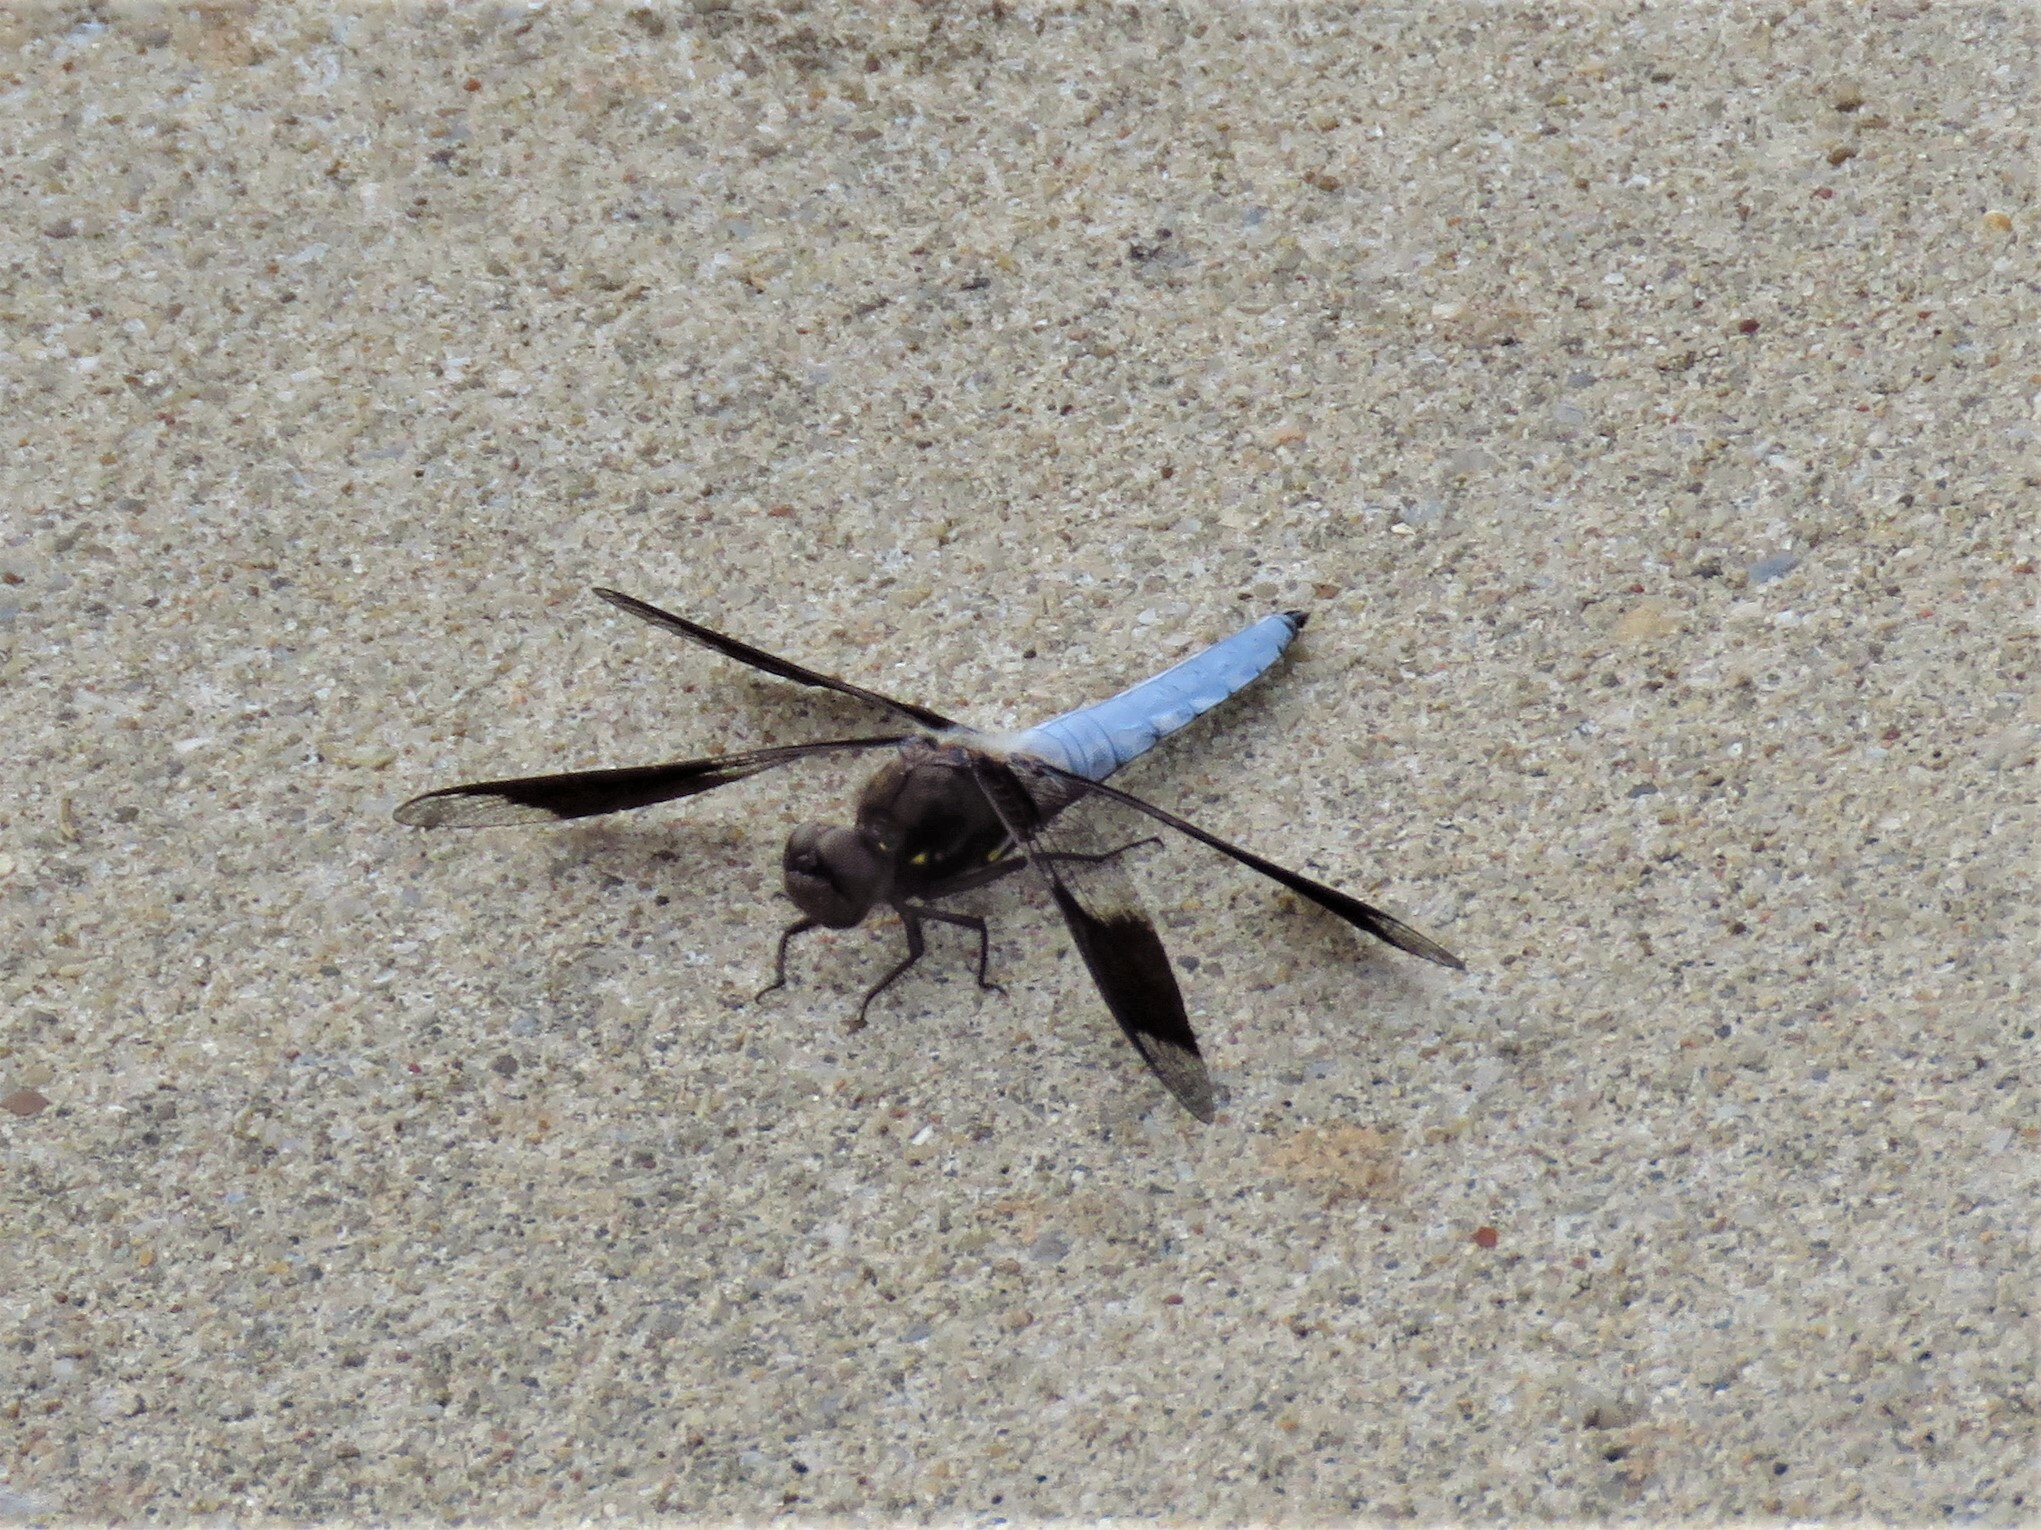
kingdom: Animalia
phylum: Arthropoda
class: Insecta
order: Odonata
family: Libellulidae
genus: Plathemis
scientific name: Plathemis lydia
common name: Common whitetail
